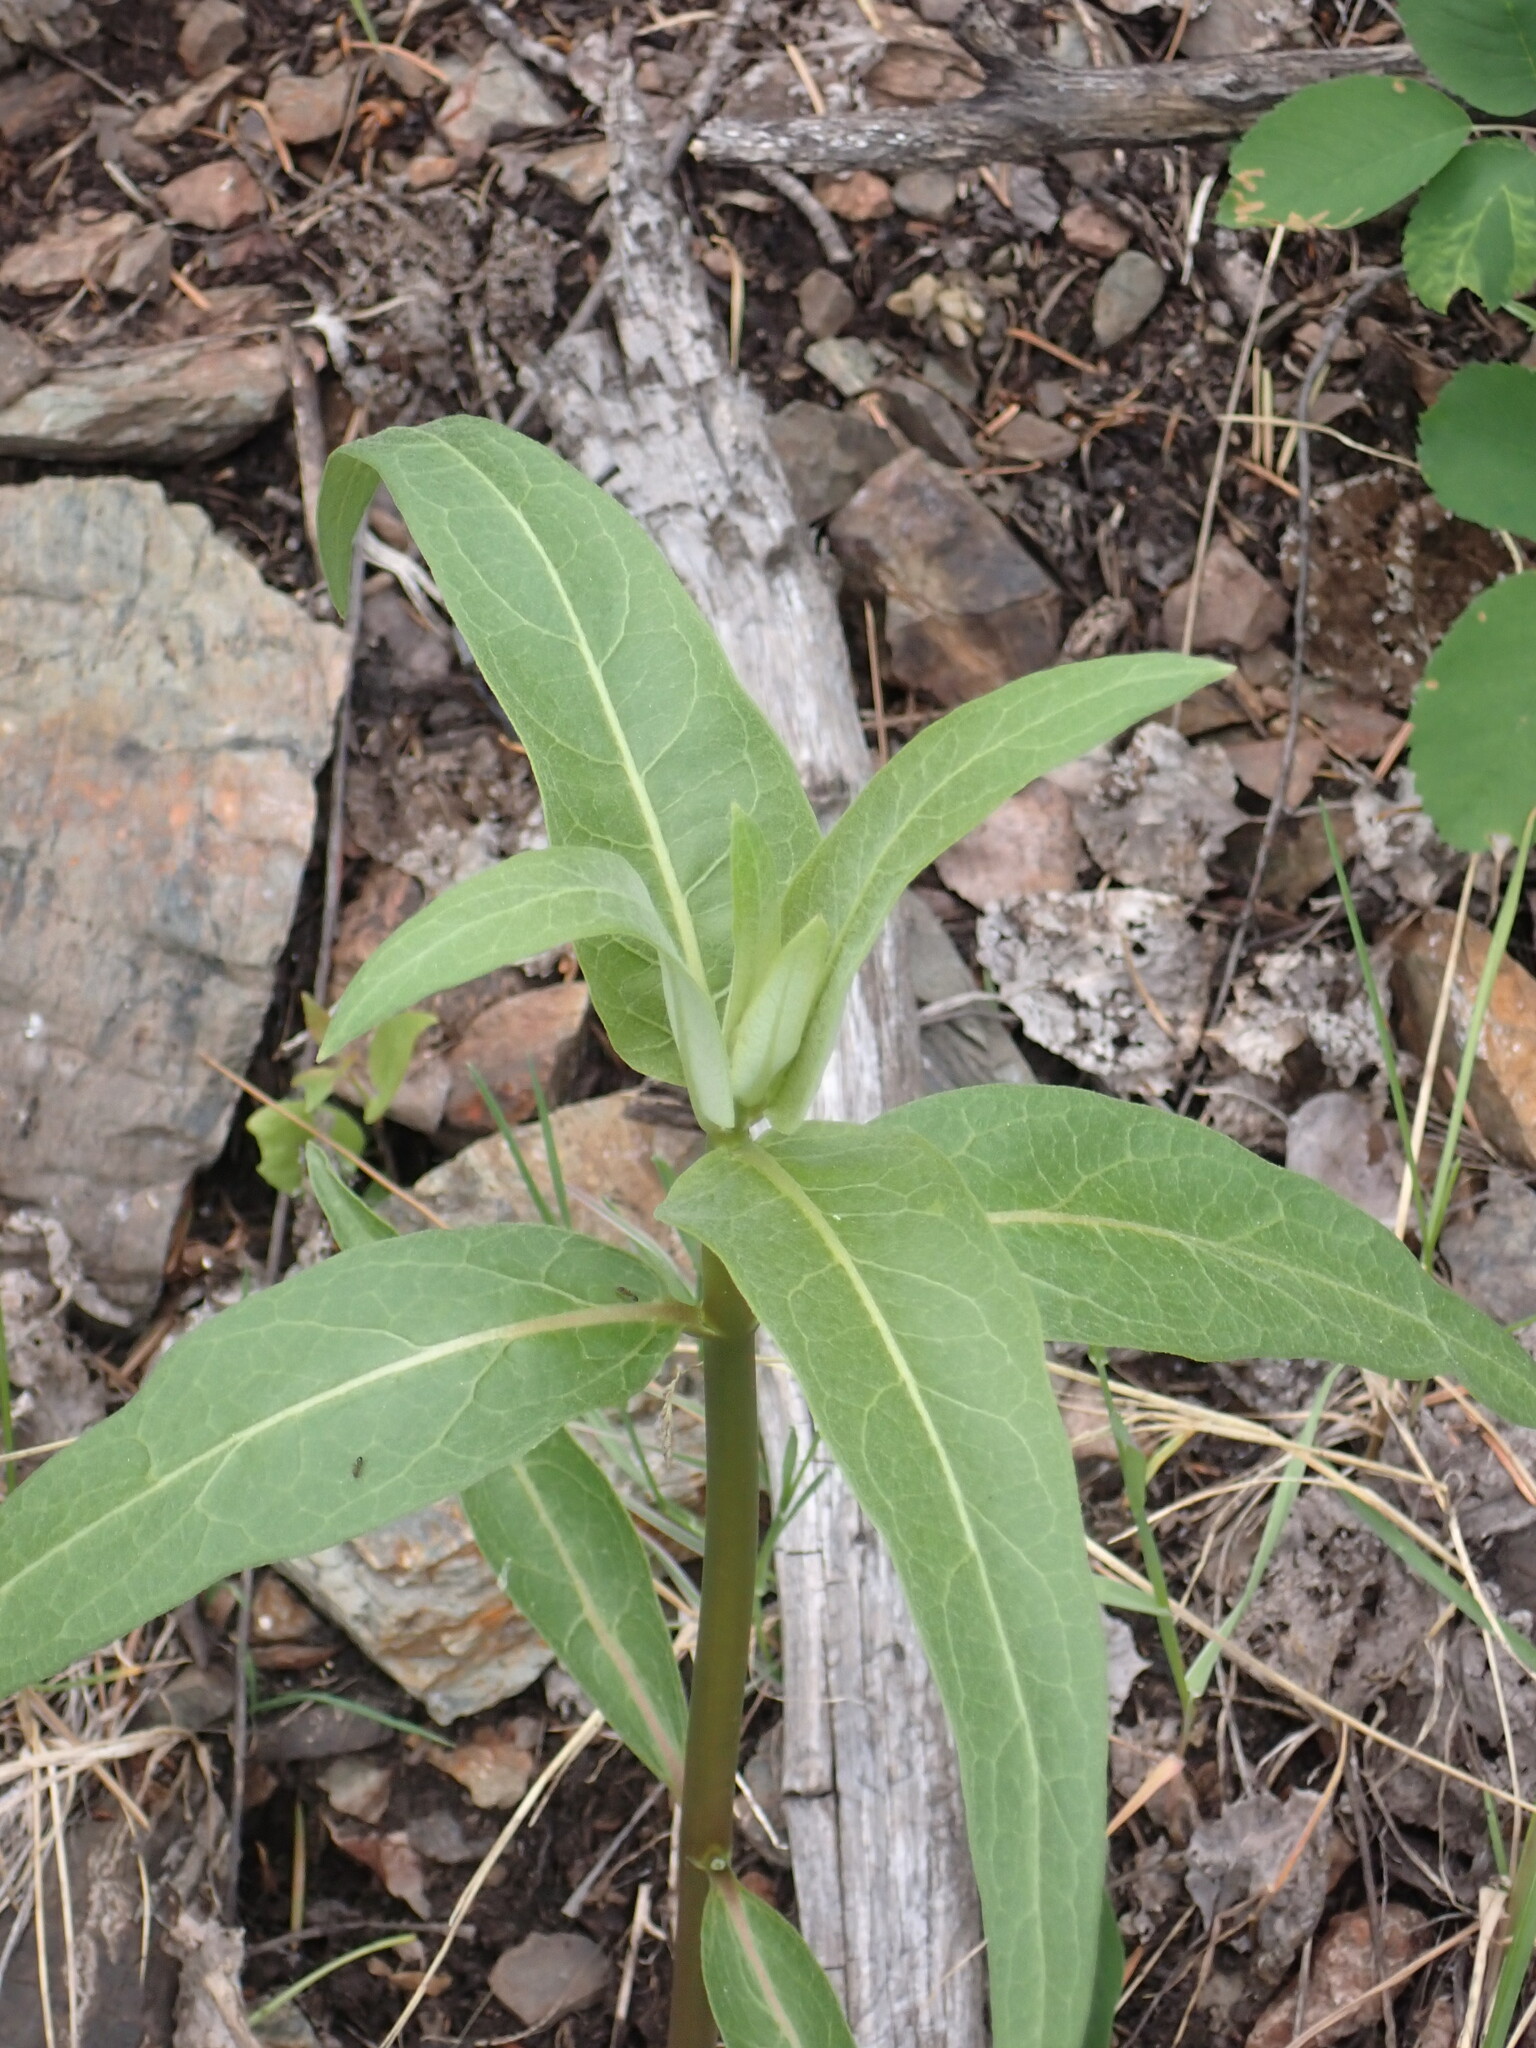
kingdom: Plantae
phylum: Tracheophyta
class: Magnoliopsida
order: Gentianales
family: Apocynaceae
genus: Asclepias
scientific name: Asclepias speciosa
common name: Showy milkweed
